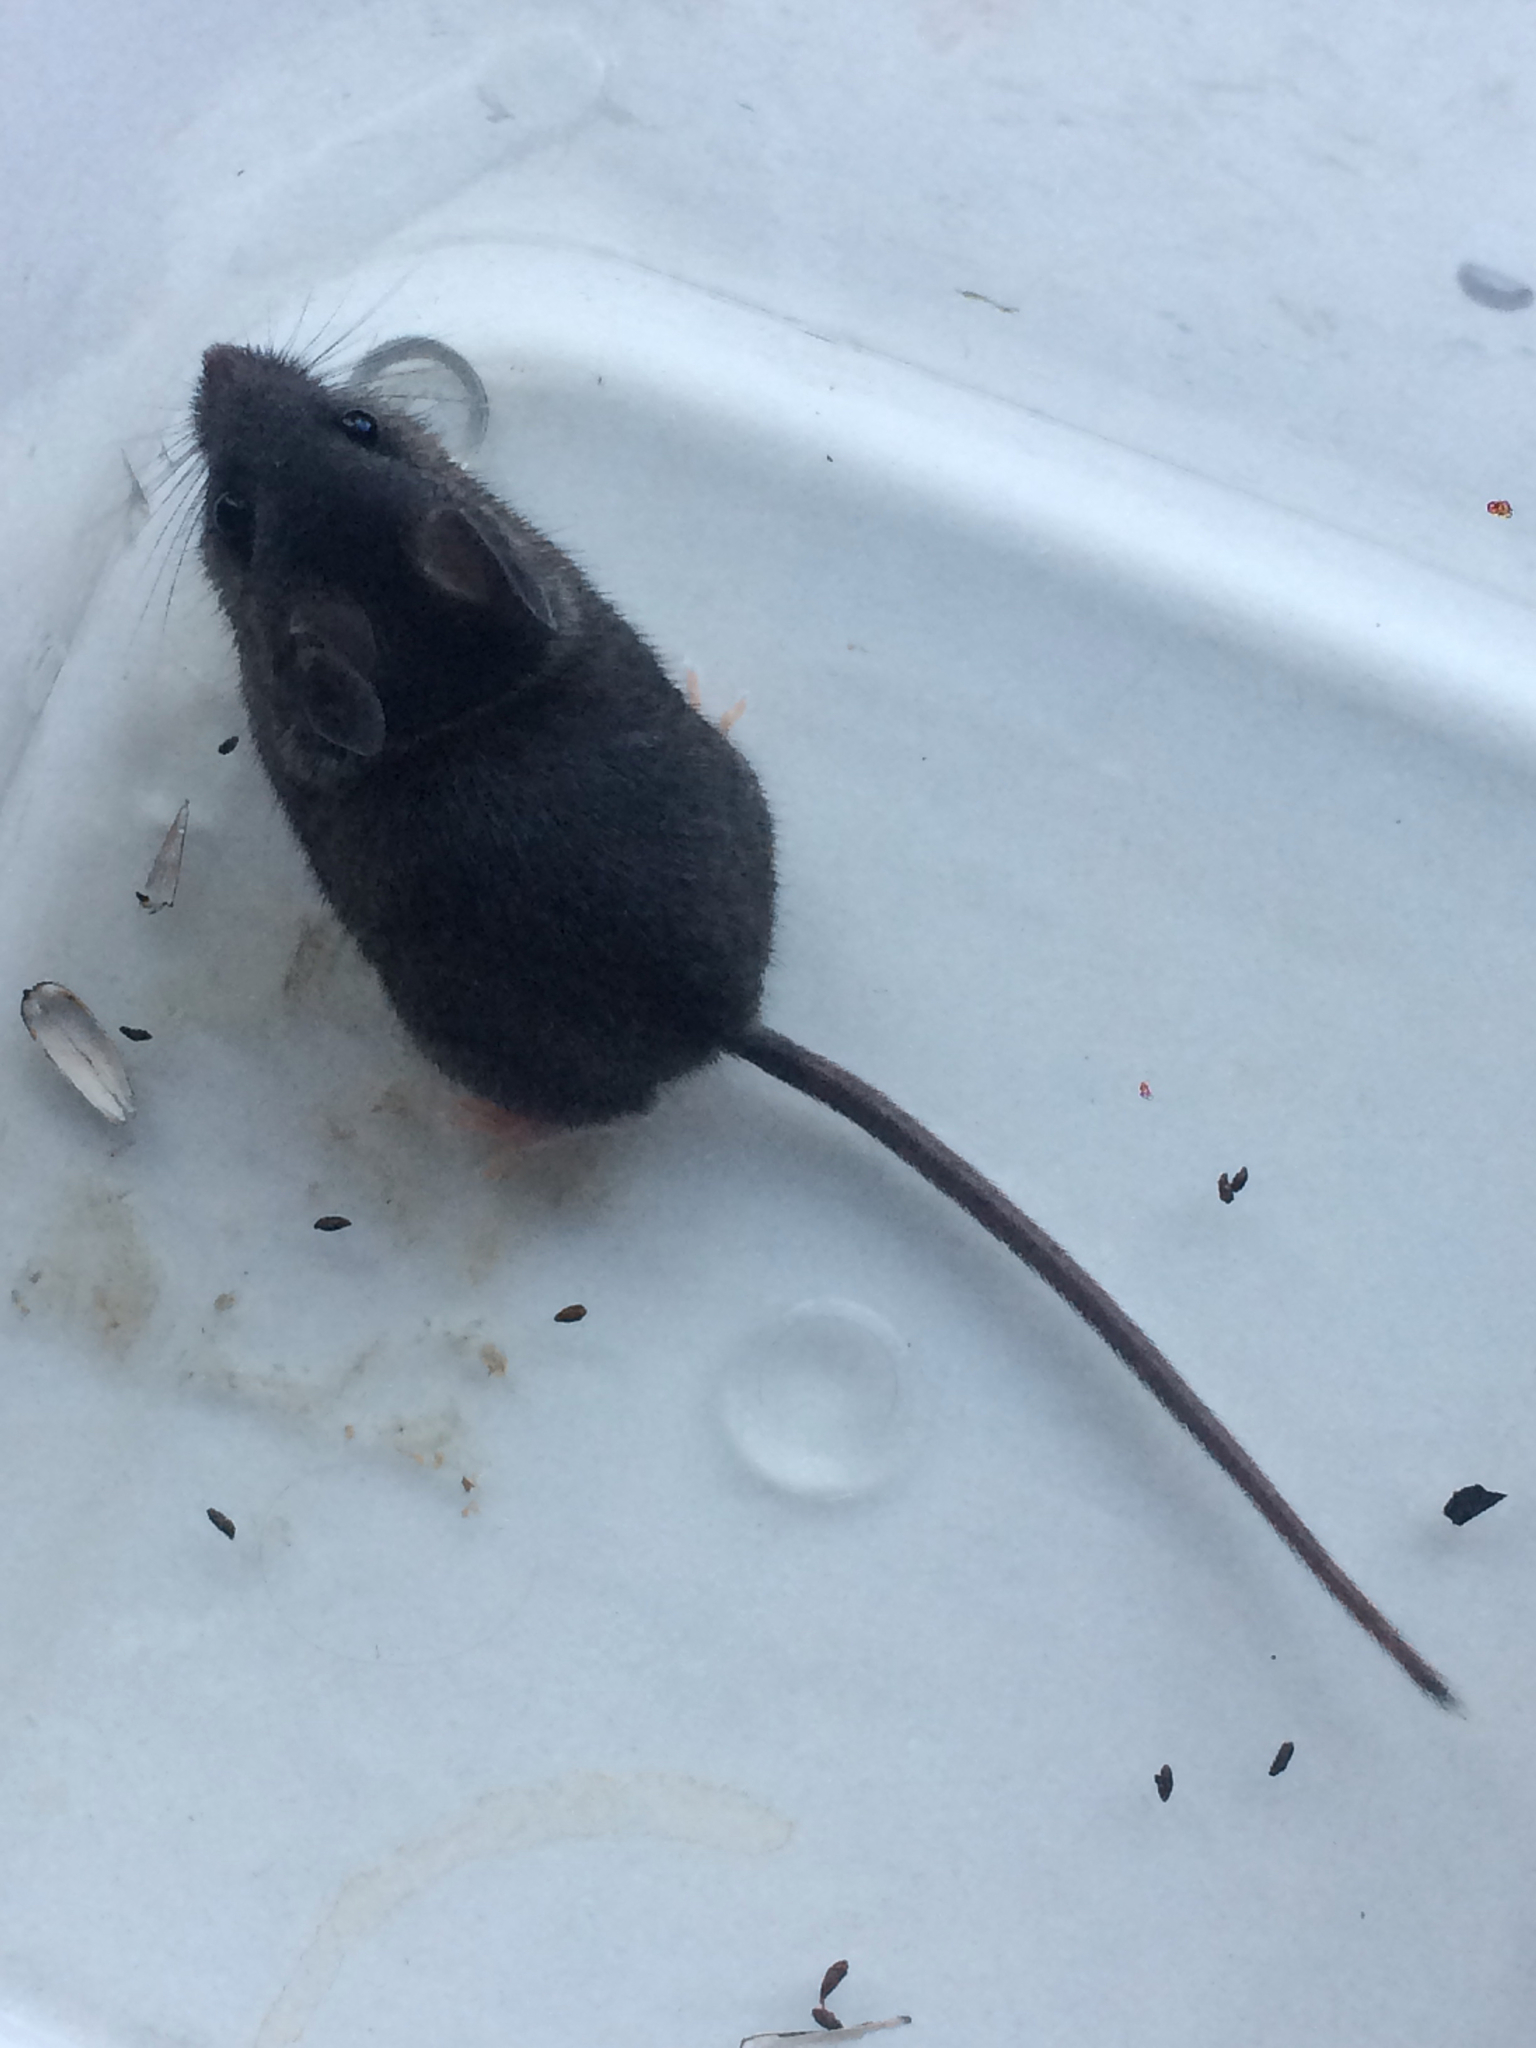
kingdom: Animalia
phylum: Chordata
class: Mammalia
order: Rodentia
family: Cricetidae
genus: Peromyscus
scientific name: Peromyscus maniculatus
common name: Deer mouse
